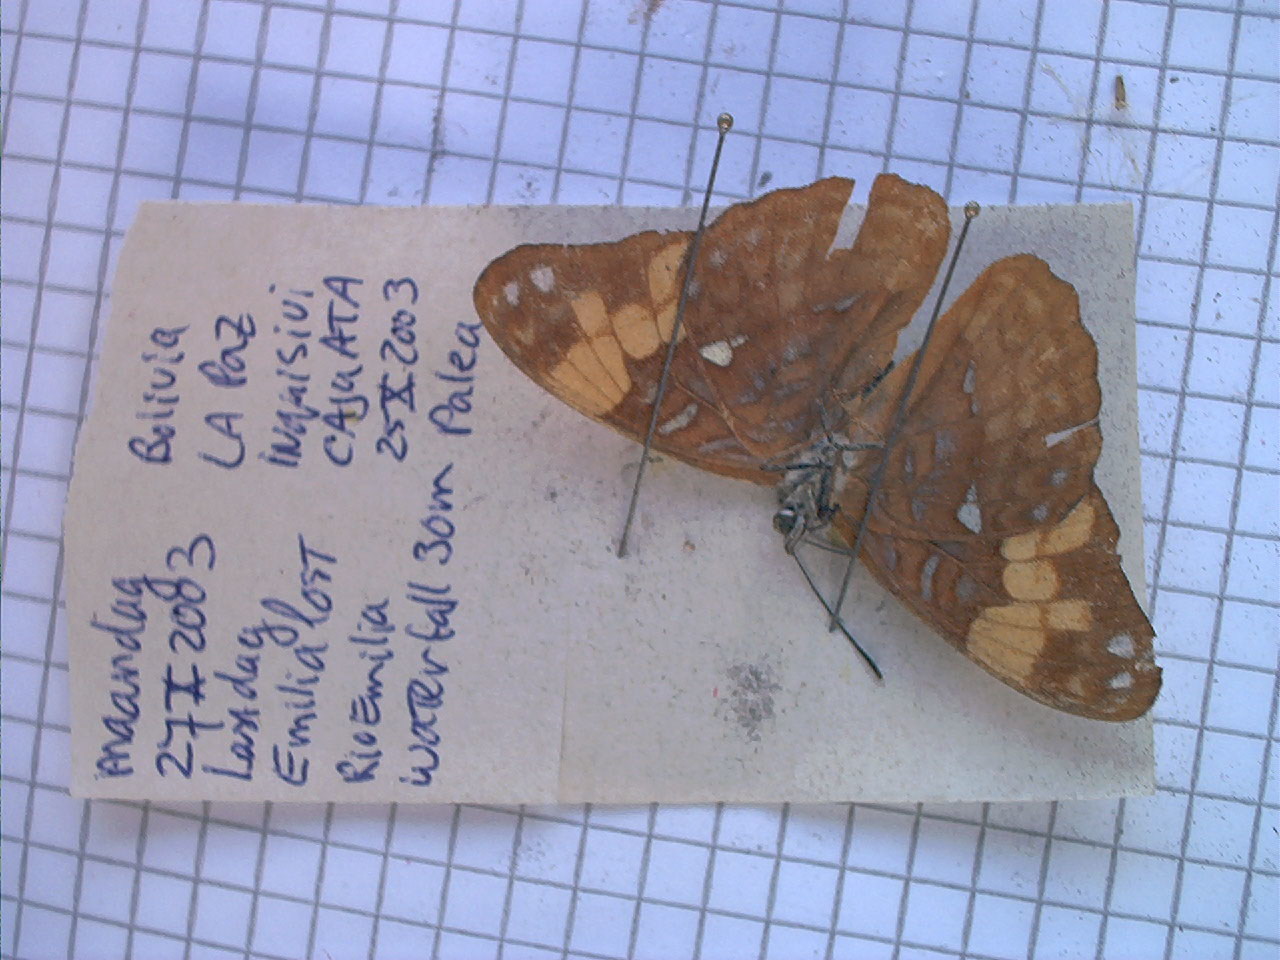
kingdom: Animalia
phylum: Arthropoda
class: Insecta
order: Lepidoptera
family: Nymphalidae
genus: Limenitis
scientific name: Limenitis irmina
